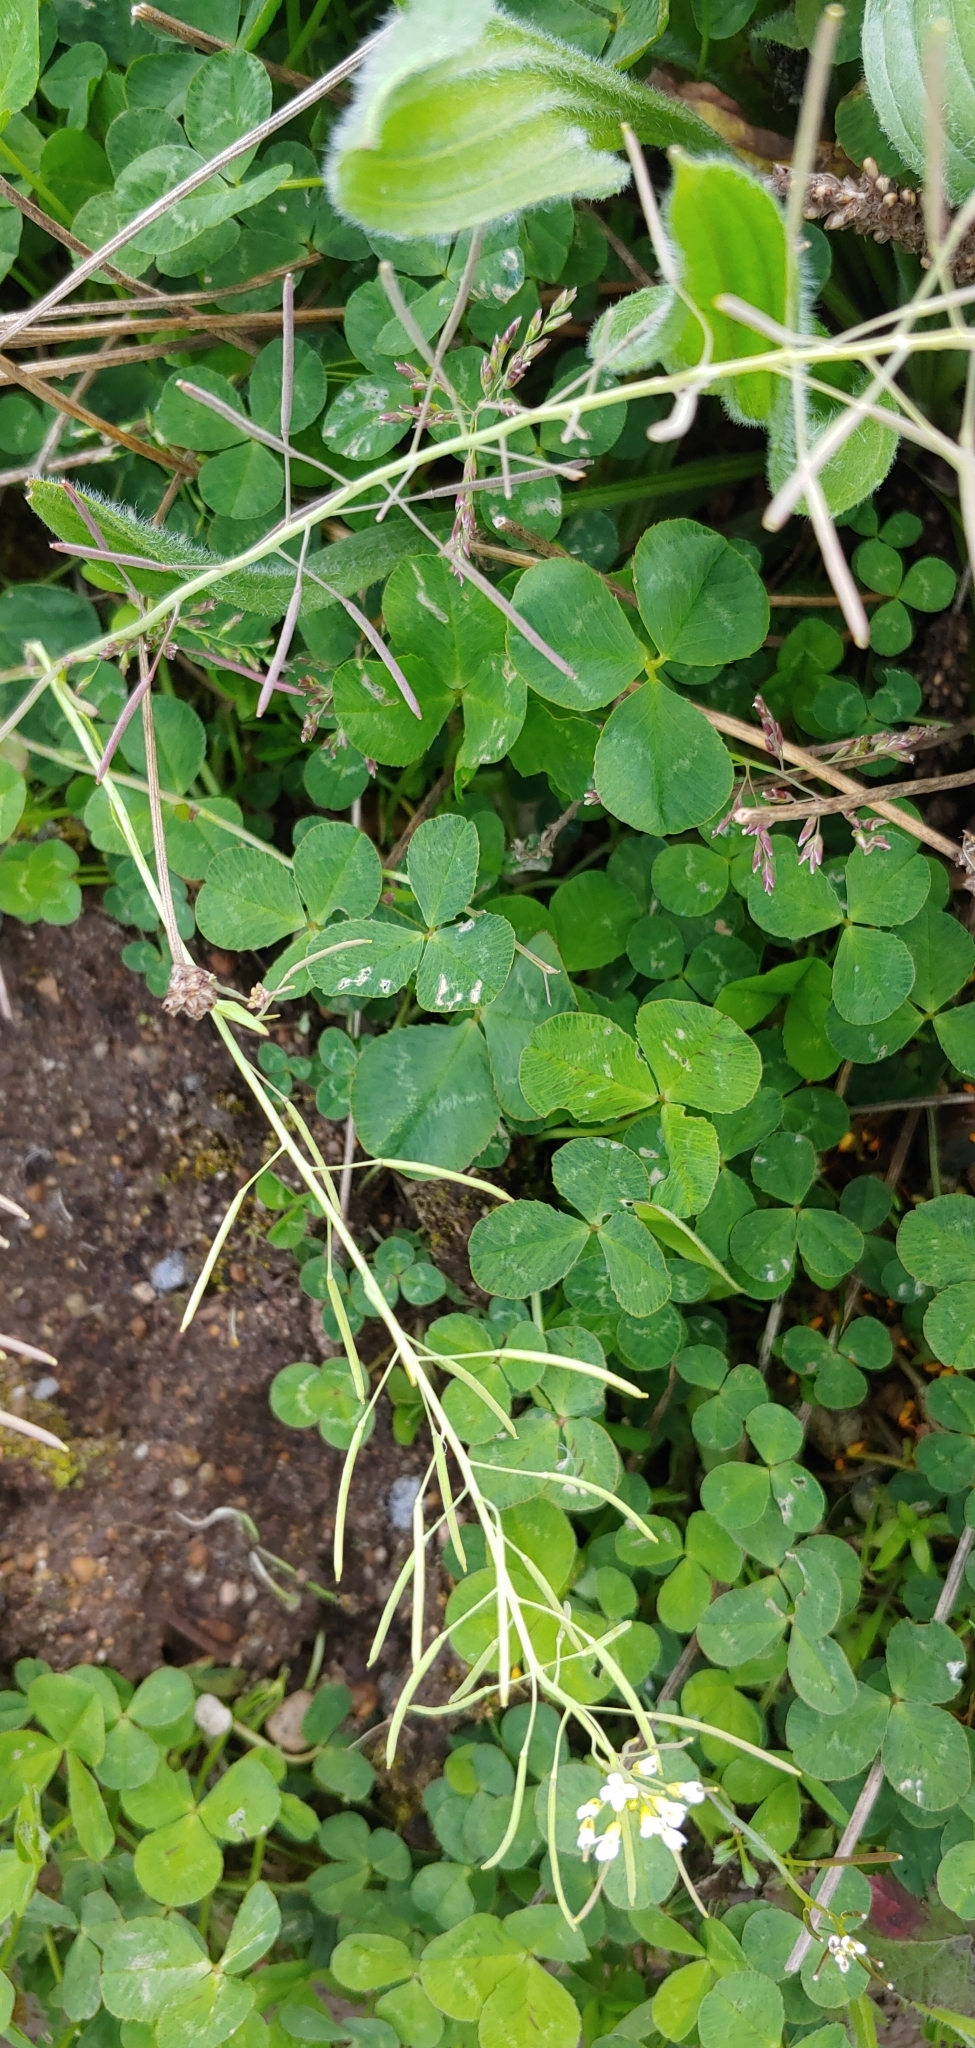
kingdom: Plantae
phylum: Tracheophyta
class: Magnoliopsida
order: Fabales
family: Fabaceae
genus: Trifolium
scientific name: Trifolium repens
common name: White clover
